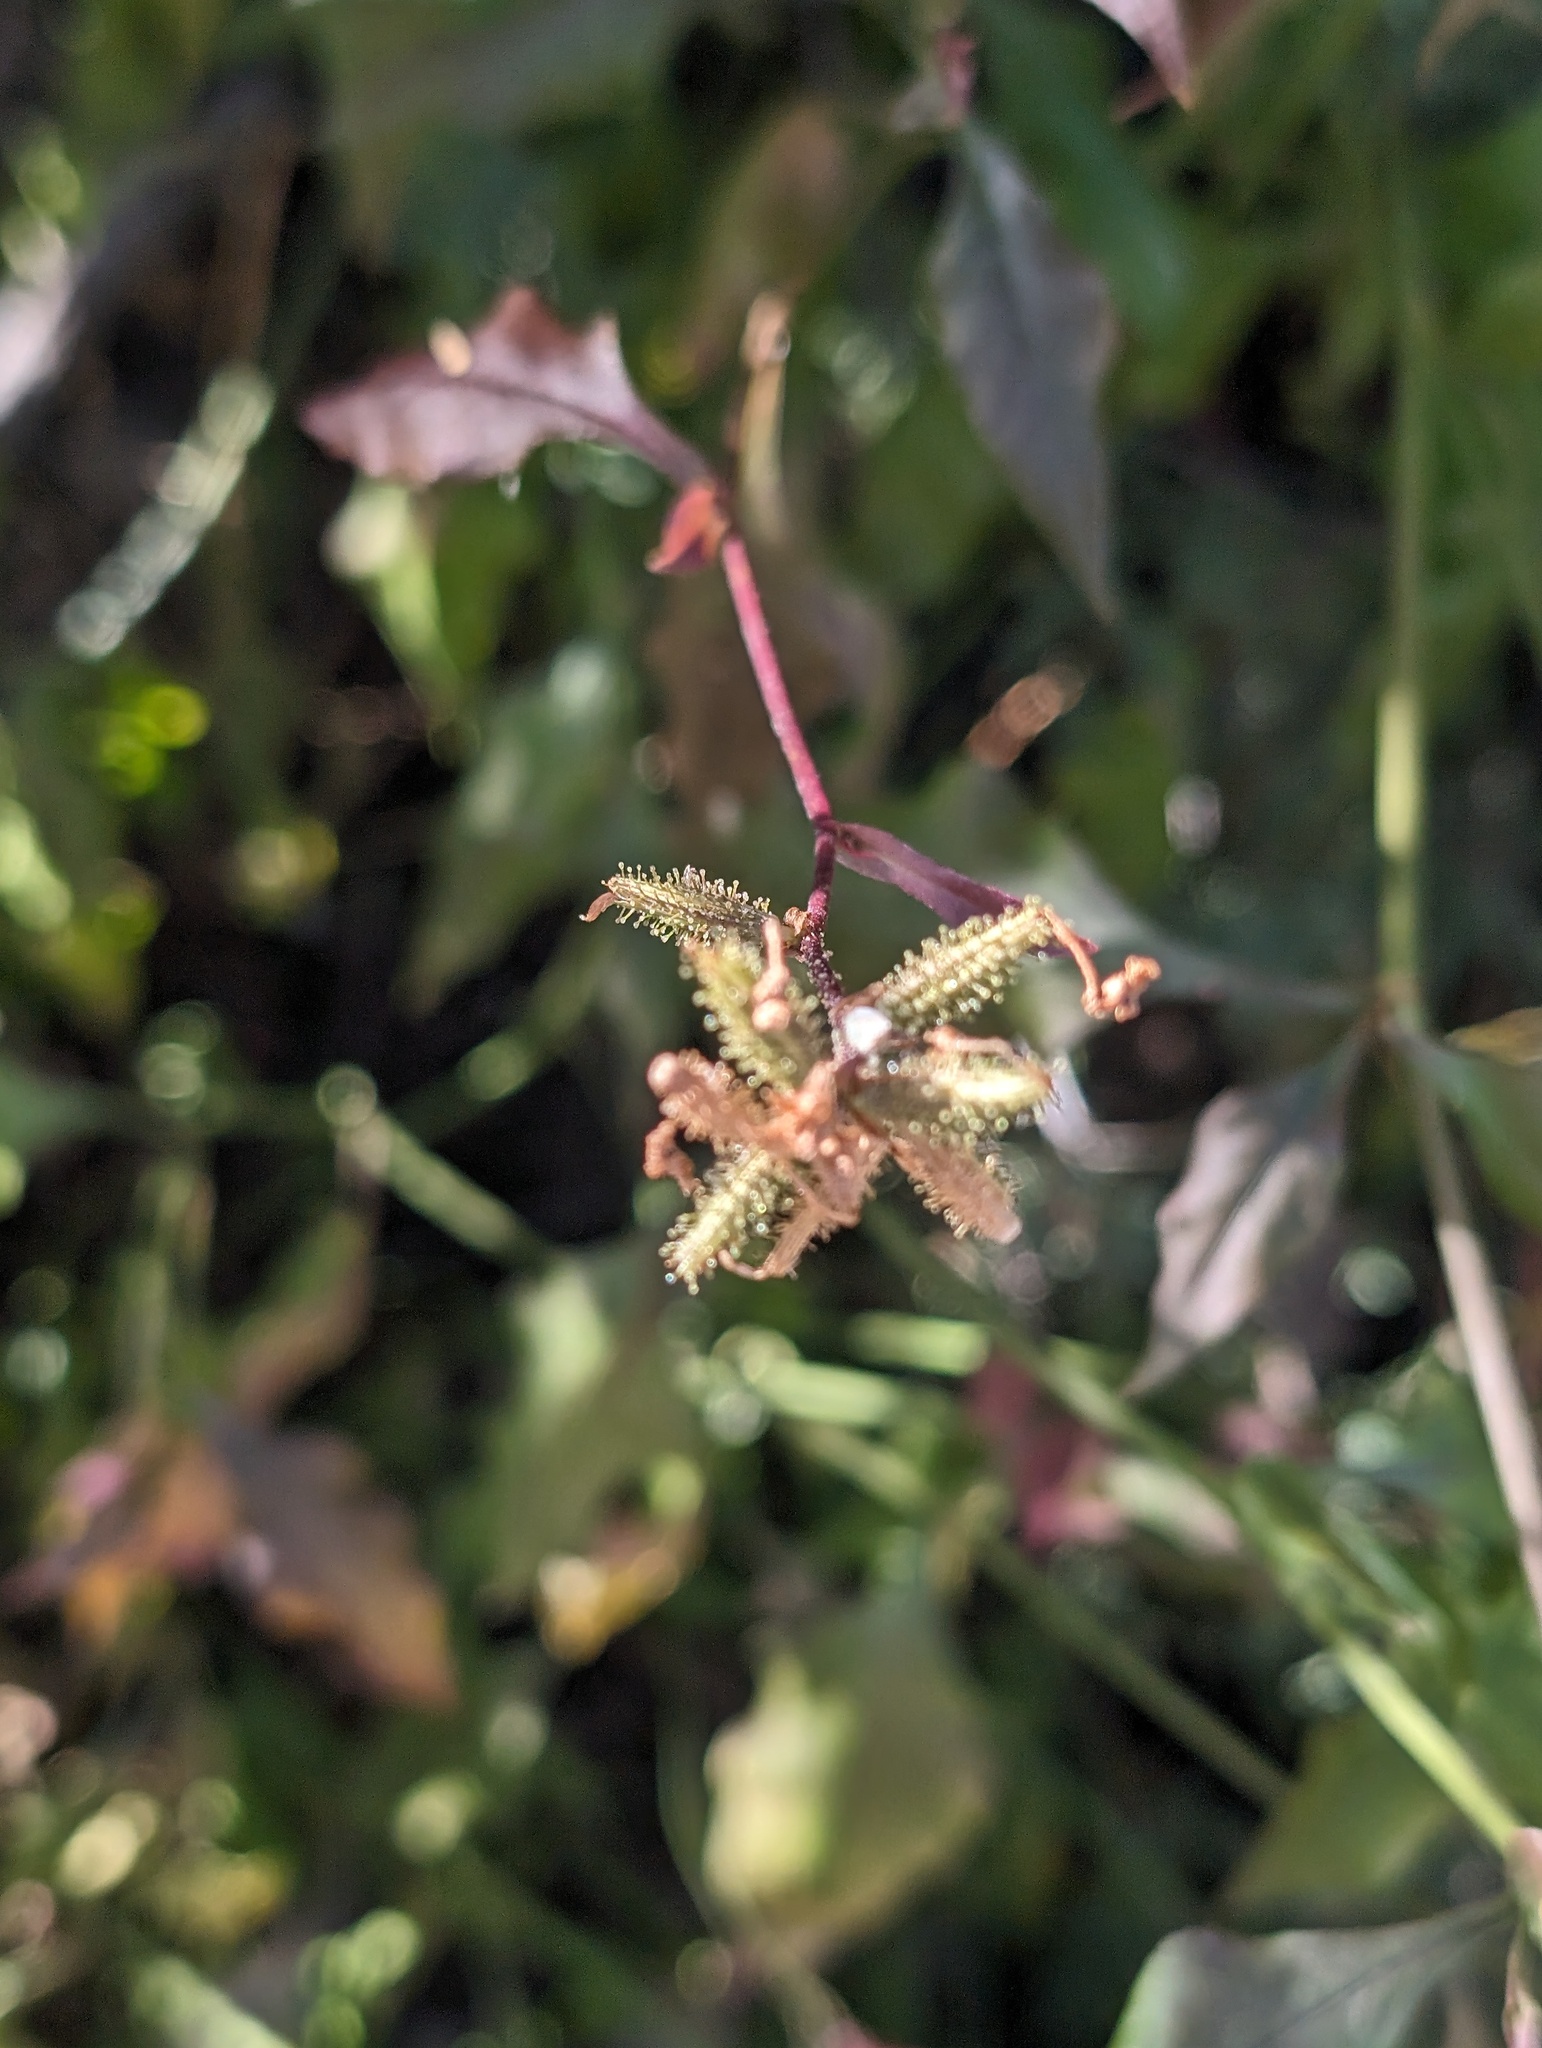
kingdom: Plantae
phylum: Tracheophyta
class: Magnoliopsida
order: Caryophyllales
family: Plumbaginaceae
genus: Plumbago
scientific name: Plumbago zeylanica
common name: Doctorbush
